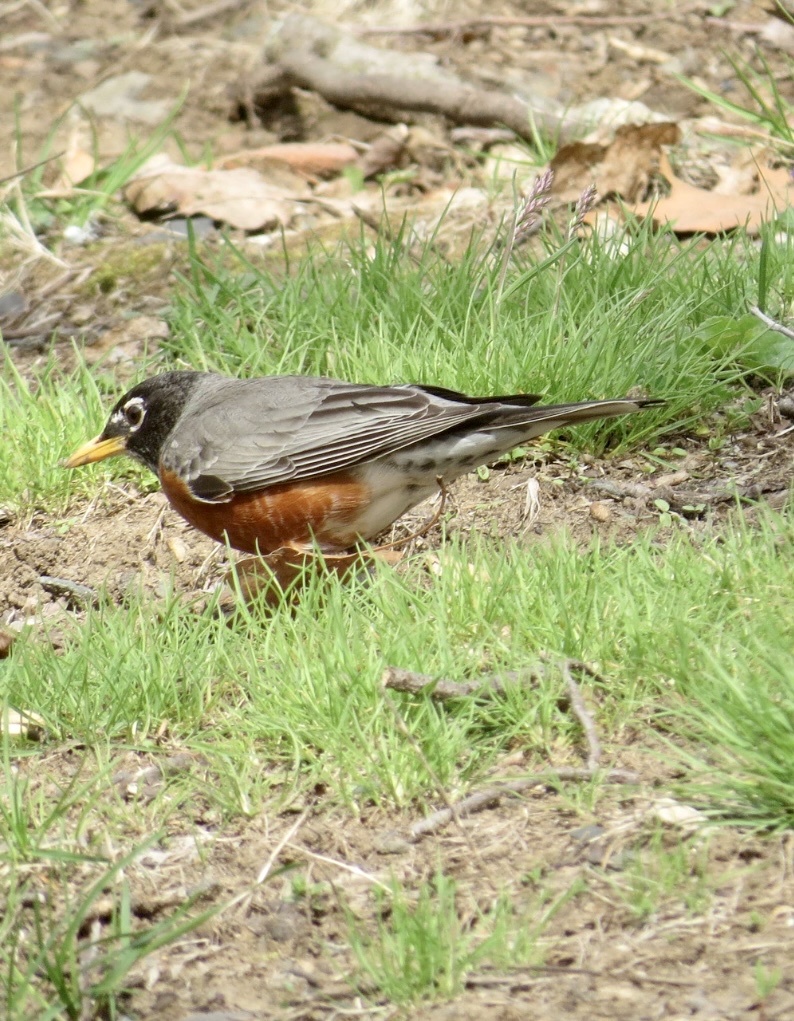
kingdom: Animalia
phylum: Chordata
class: Aves
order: Passeriformes
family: Turdidae
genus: Turdus
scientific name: Turdus migratorius
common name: American robin
